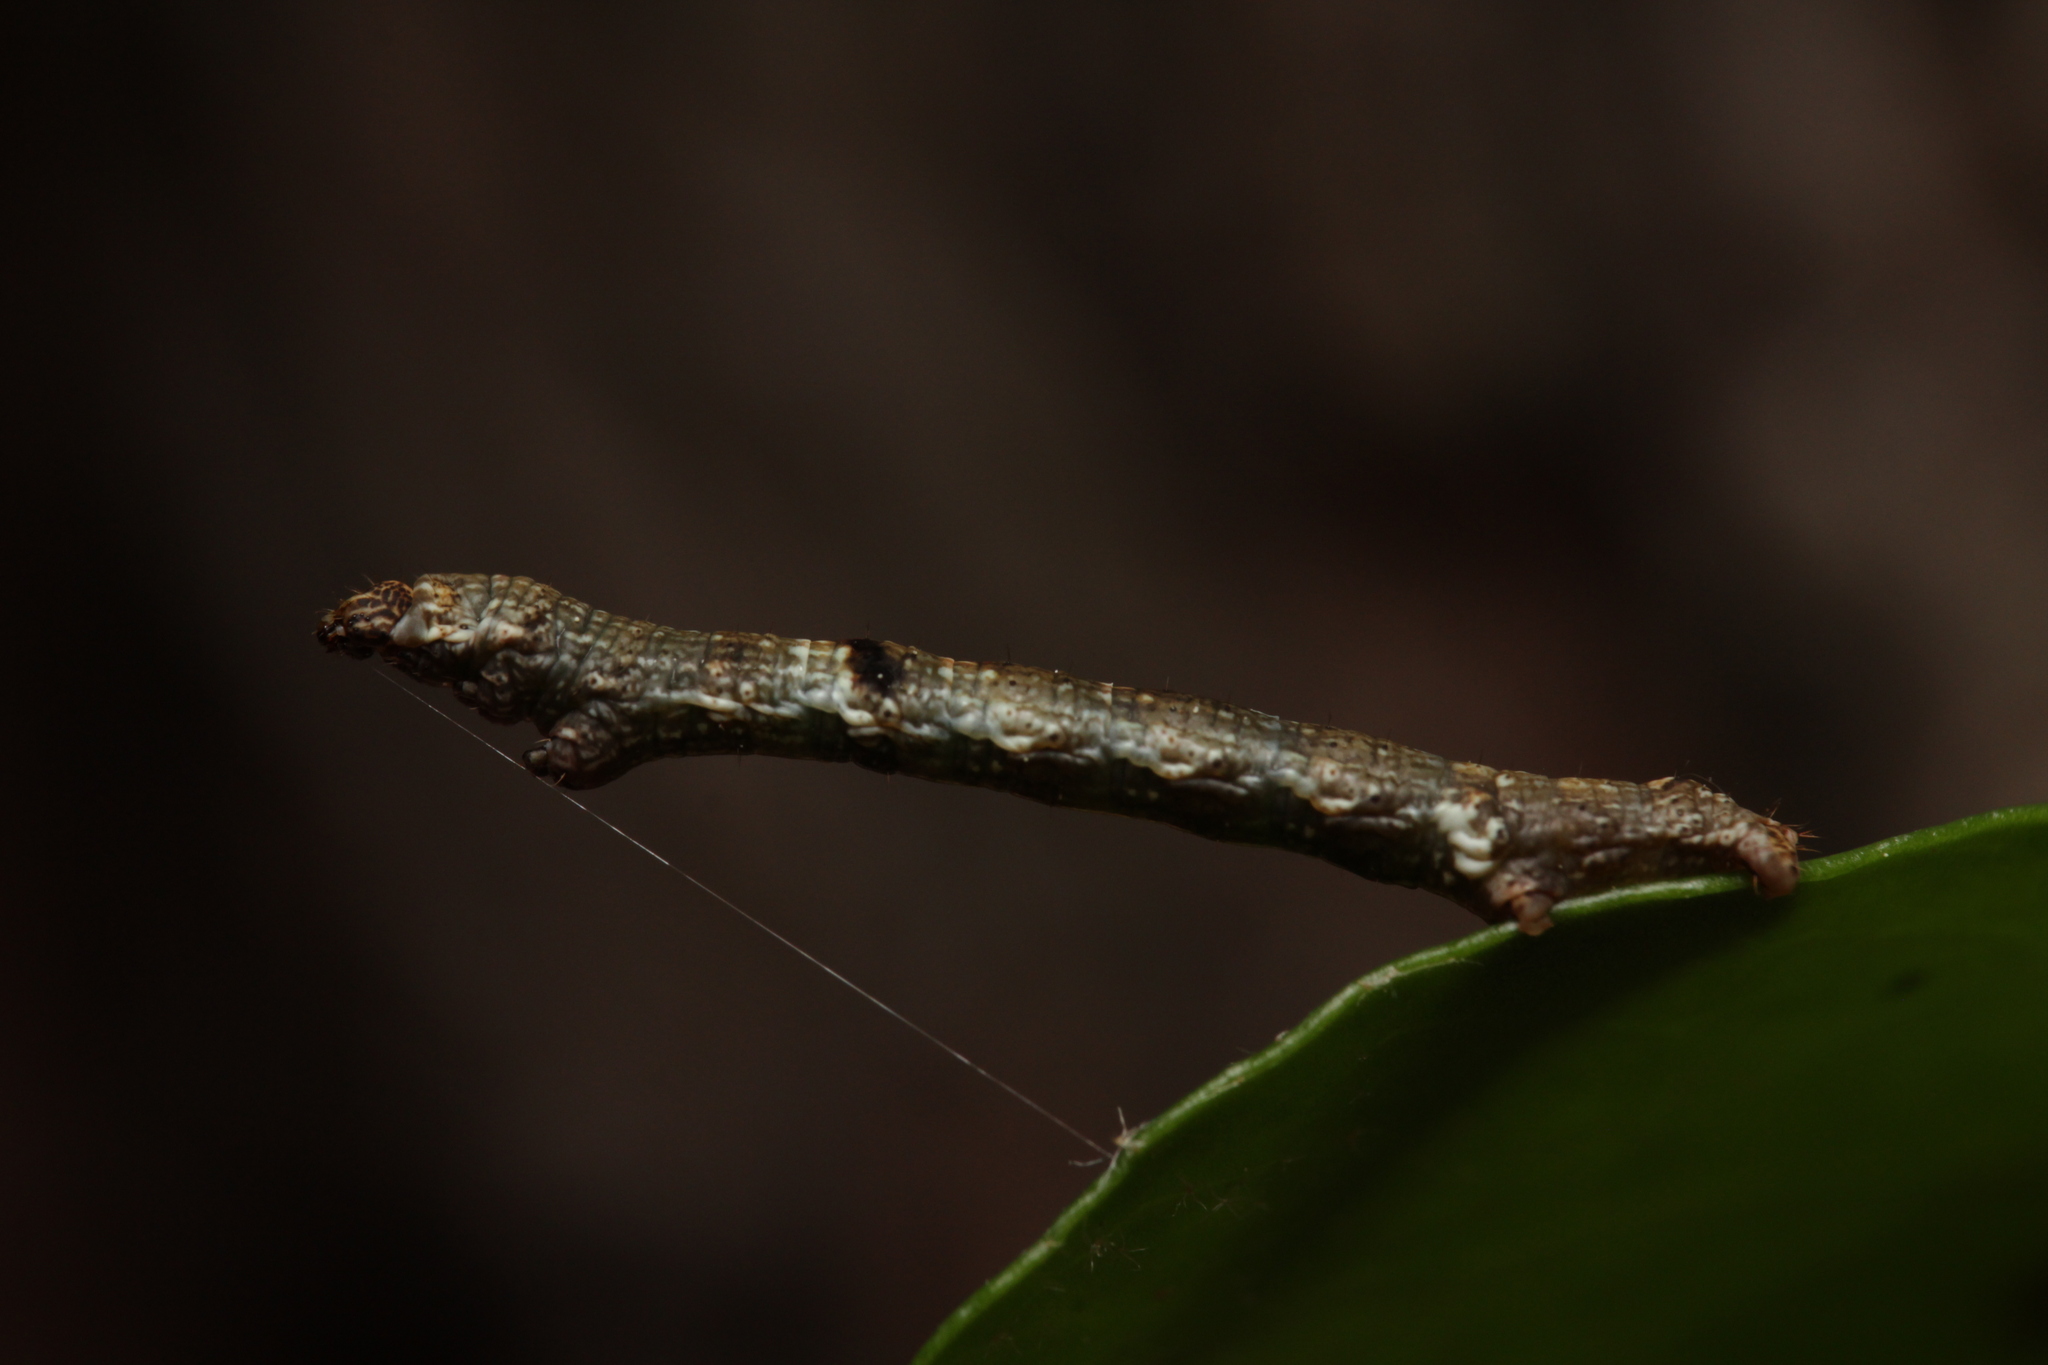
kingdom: Animalia
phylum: Arthropoda
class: Insecta
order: Lepidoptera
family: Geometridae
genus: Ectropis
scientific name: Ectropis crepuscularia
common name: Engrailed
